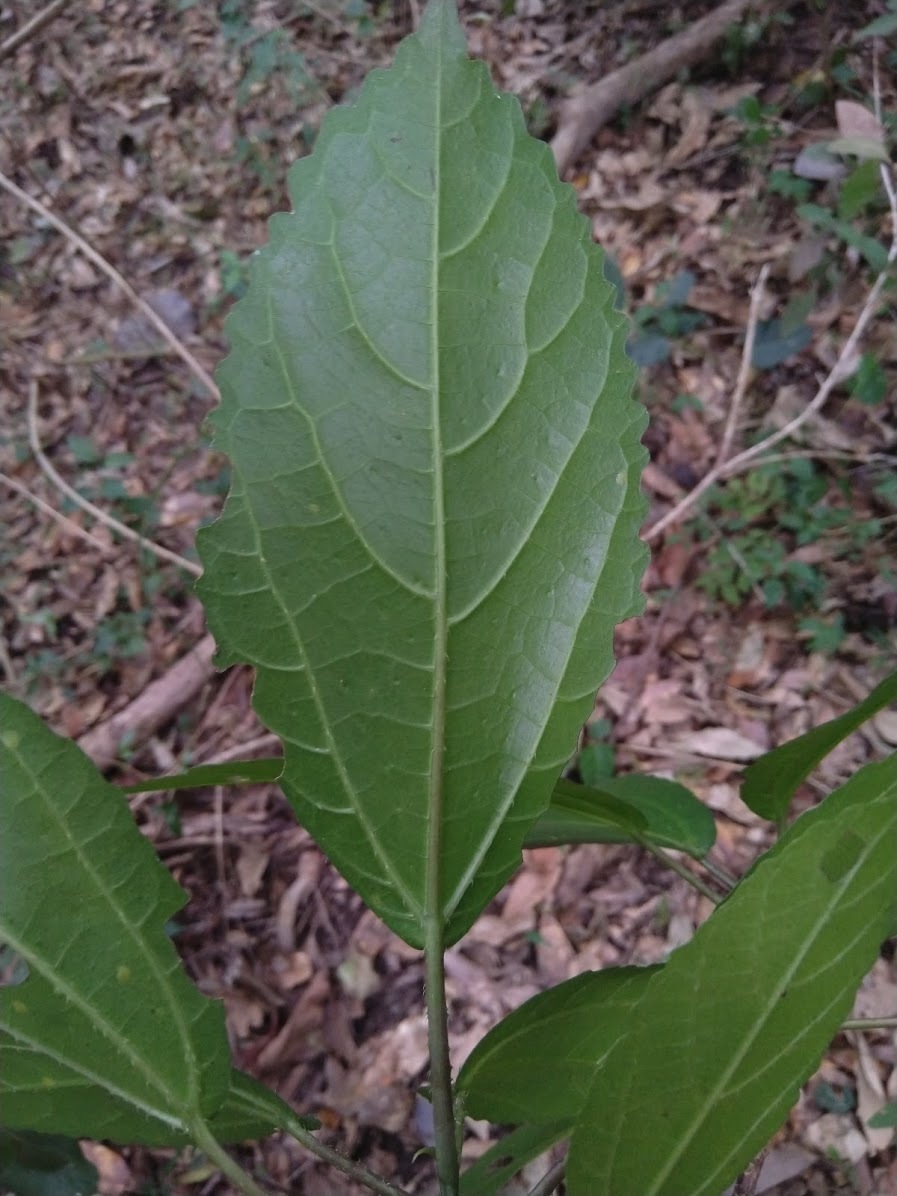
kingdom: Plantae
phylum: Tracheophyta
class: Magnoliopsida
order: Rosales
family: Urticaceae
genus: Dendrocnide
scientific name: Dendrocnide photiniphylla
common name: Shiny-leaved stinging tree
